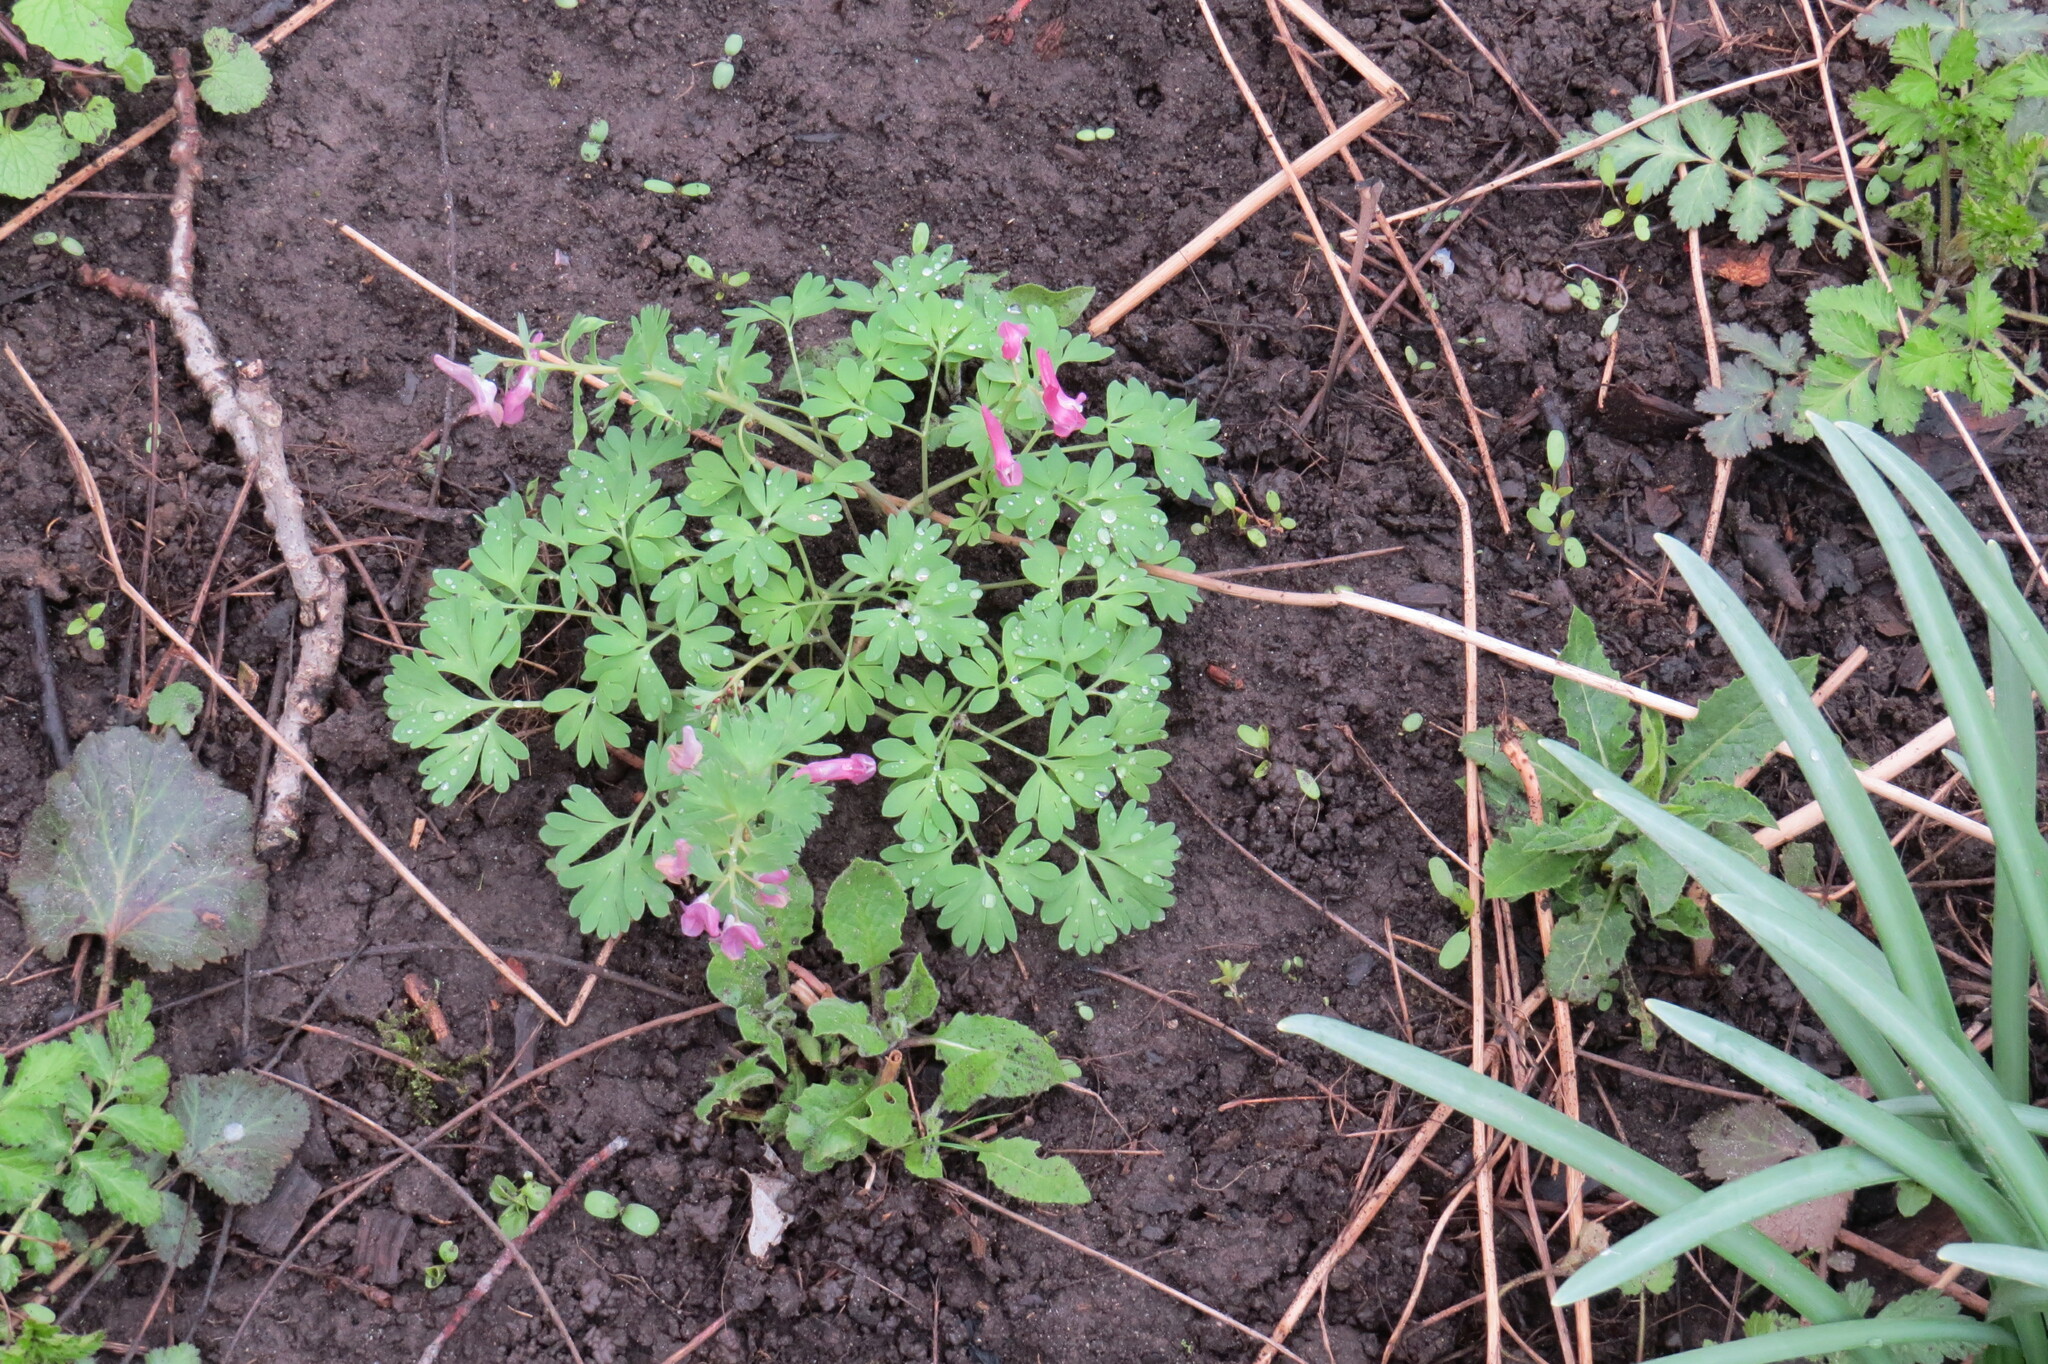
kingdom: Plantae
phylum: Tracheophyta
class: Magnoliopsida
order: Ranunculales
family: Papaveraceae
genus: Corydalis
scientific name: Corydalis solida
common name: Bird-in-a-bush
